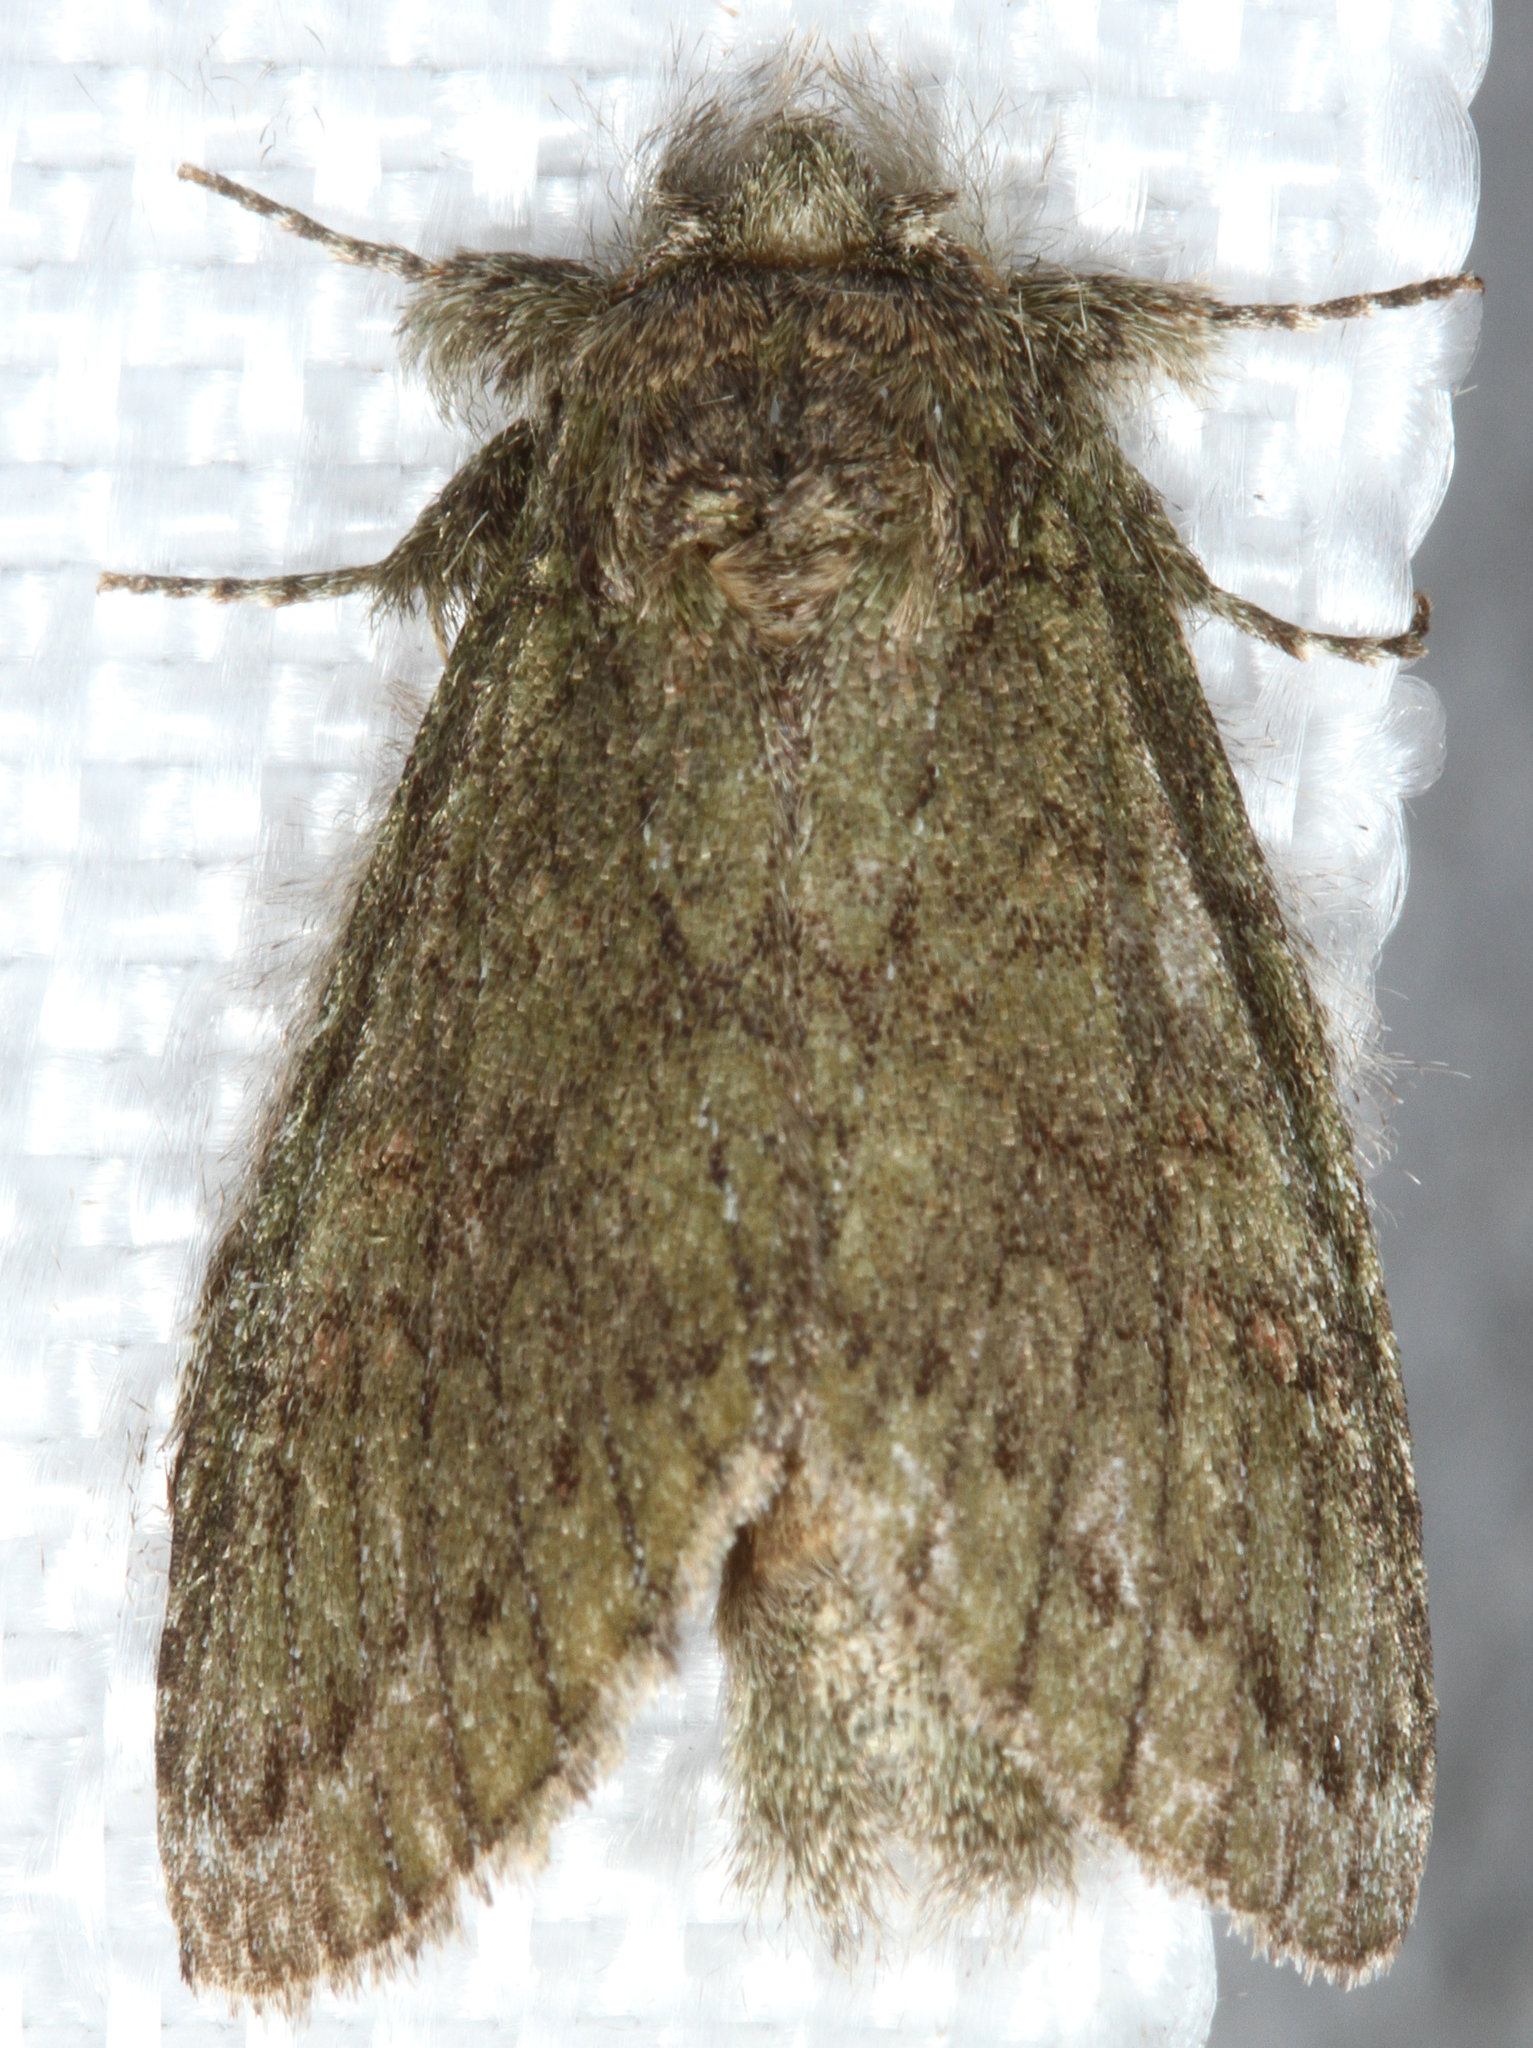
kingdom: Animalia
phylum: Arthropoda
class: Insecta
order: Lepidoptera
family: Notodontidae
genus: Disphragis
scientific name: Disphragis Cecrita guttivitta
